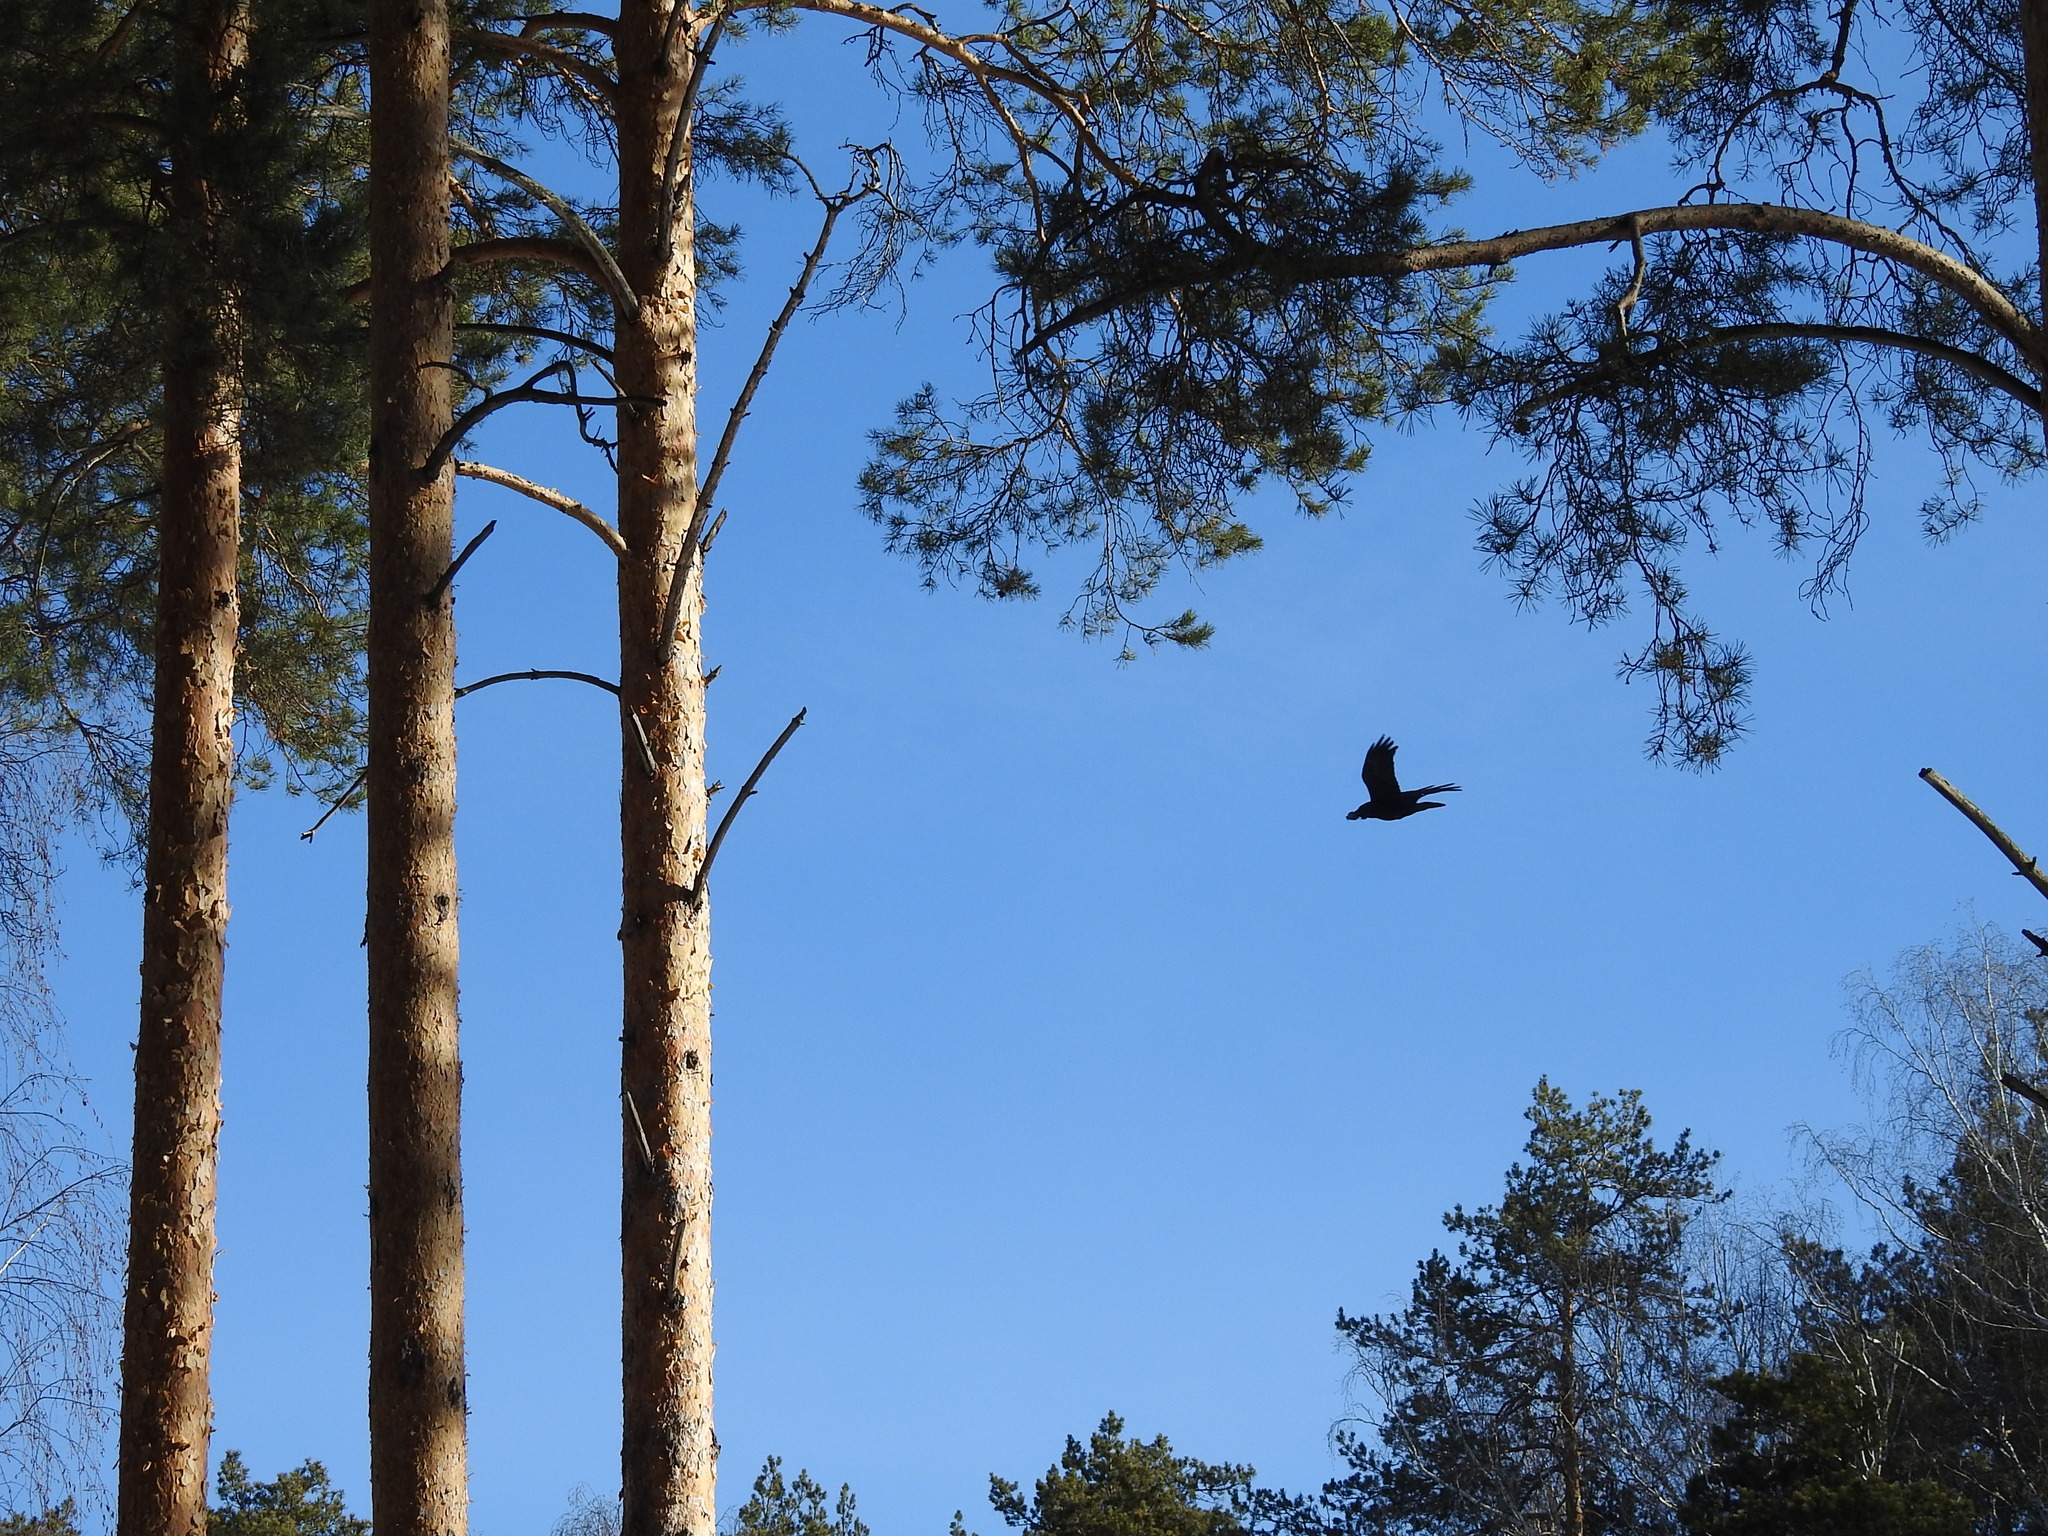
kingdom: Animalia
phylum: Chordata
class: Aves
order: Passeriformes
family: Corvidae
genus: Corvus
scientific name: Corvus corax
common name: Common raven
